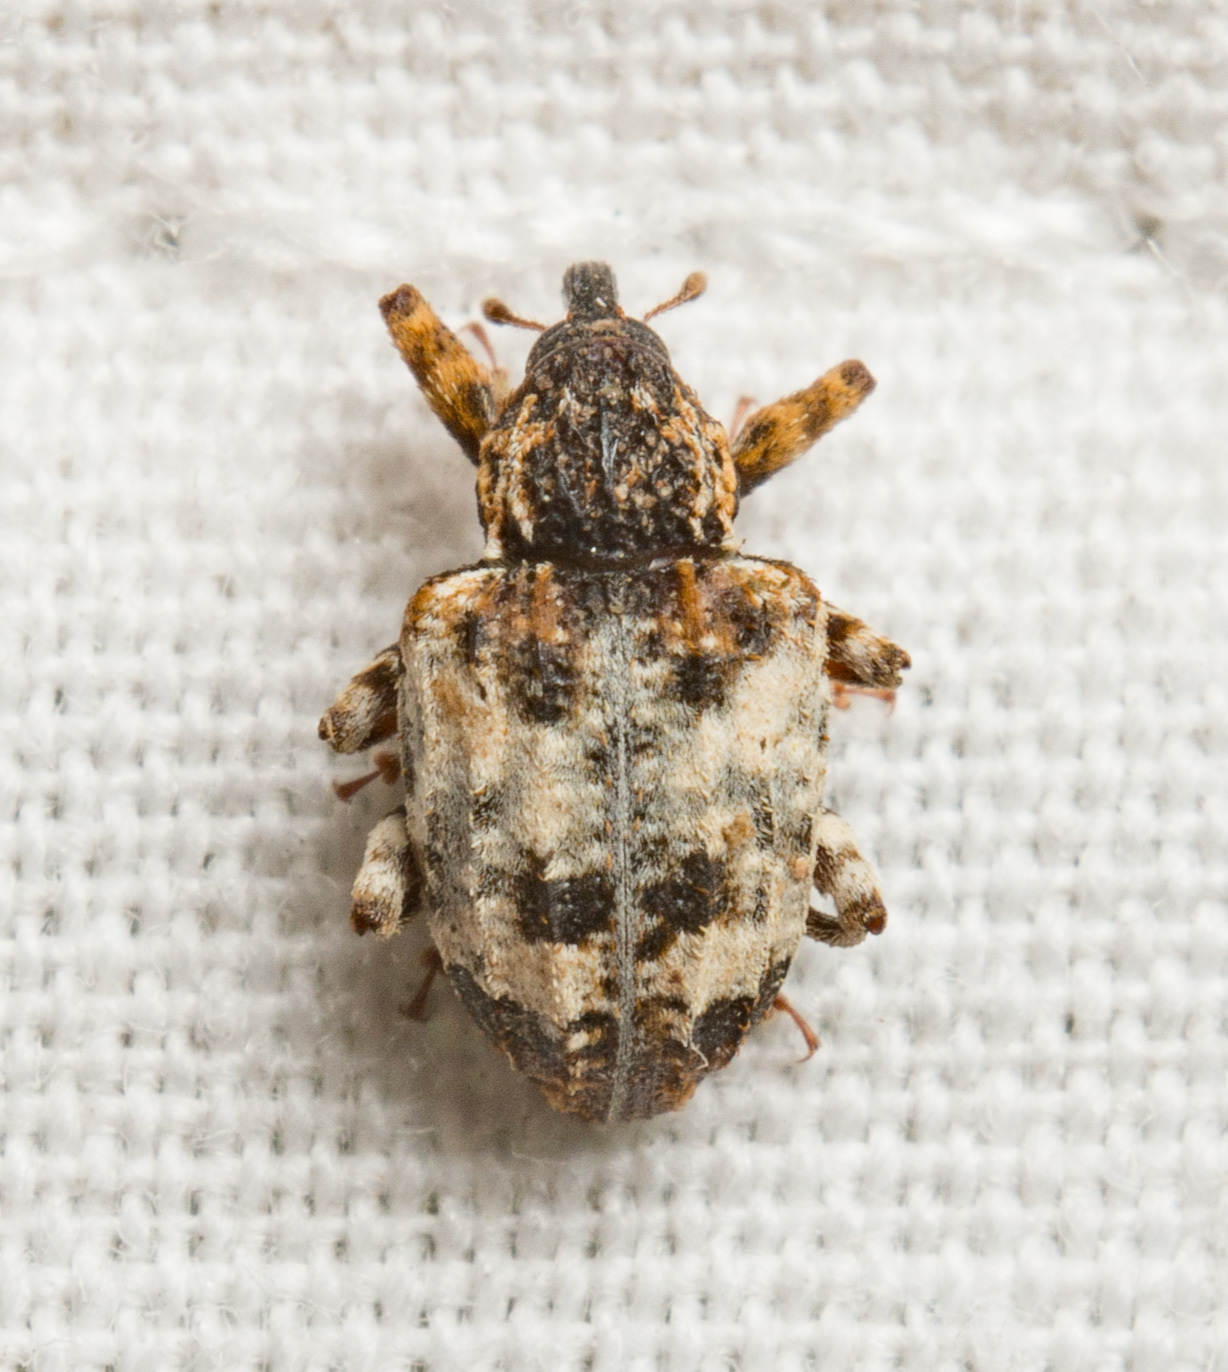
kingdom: Animalia
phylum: Arthropoda
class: Insecta
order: Coleoptera
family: Curculionidae
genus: Conotrachelus
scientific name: Conotrachelus leucophaeatus
